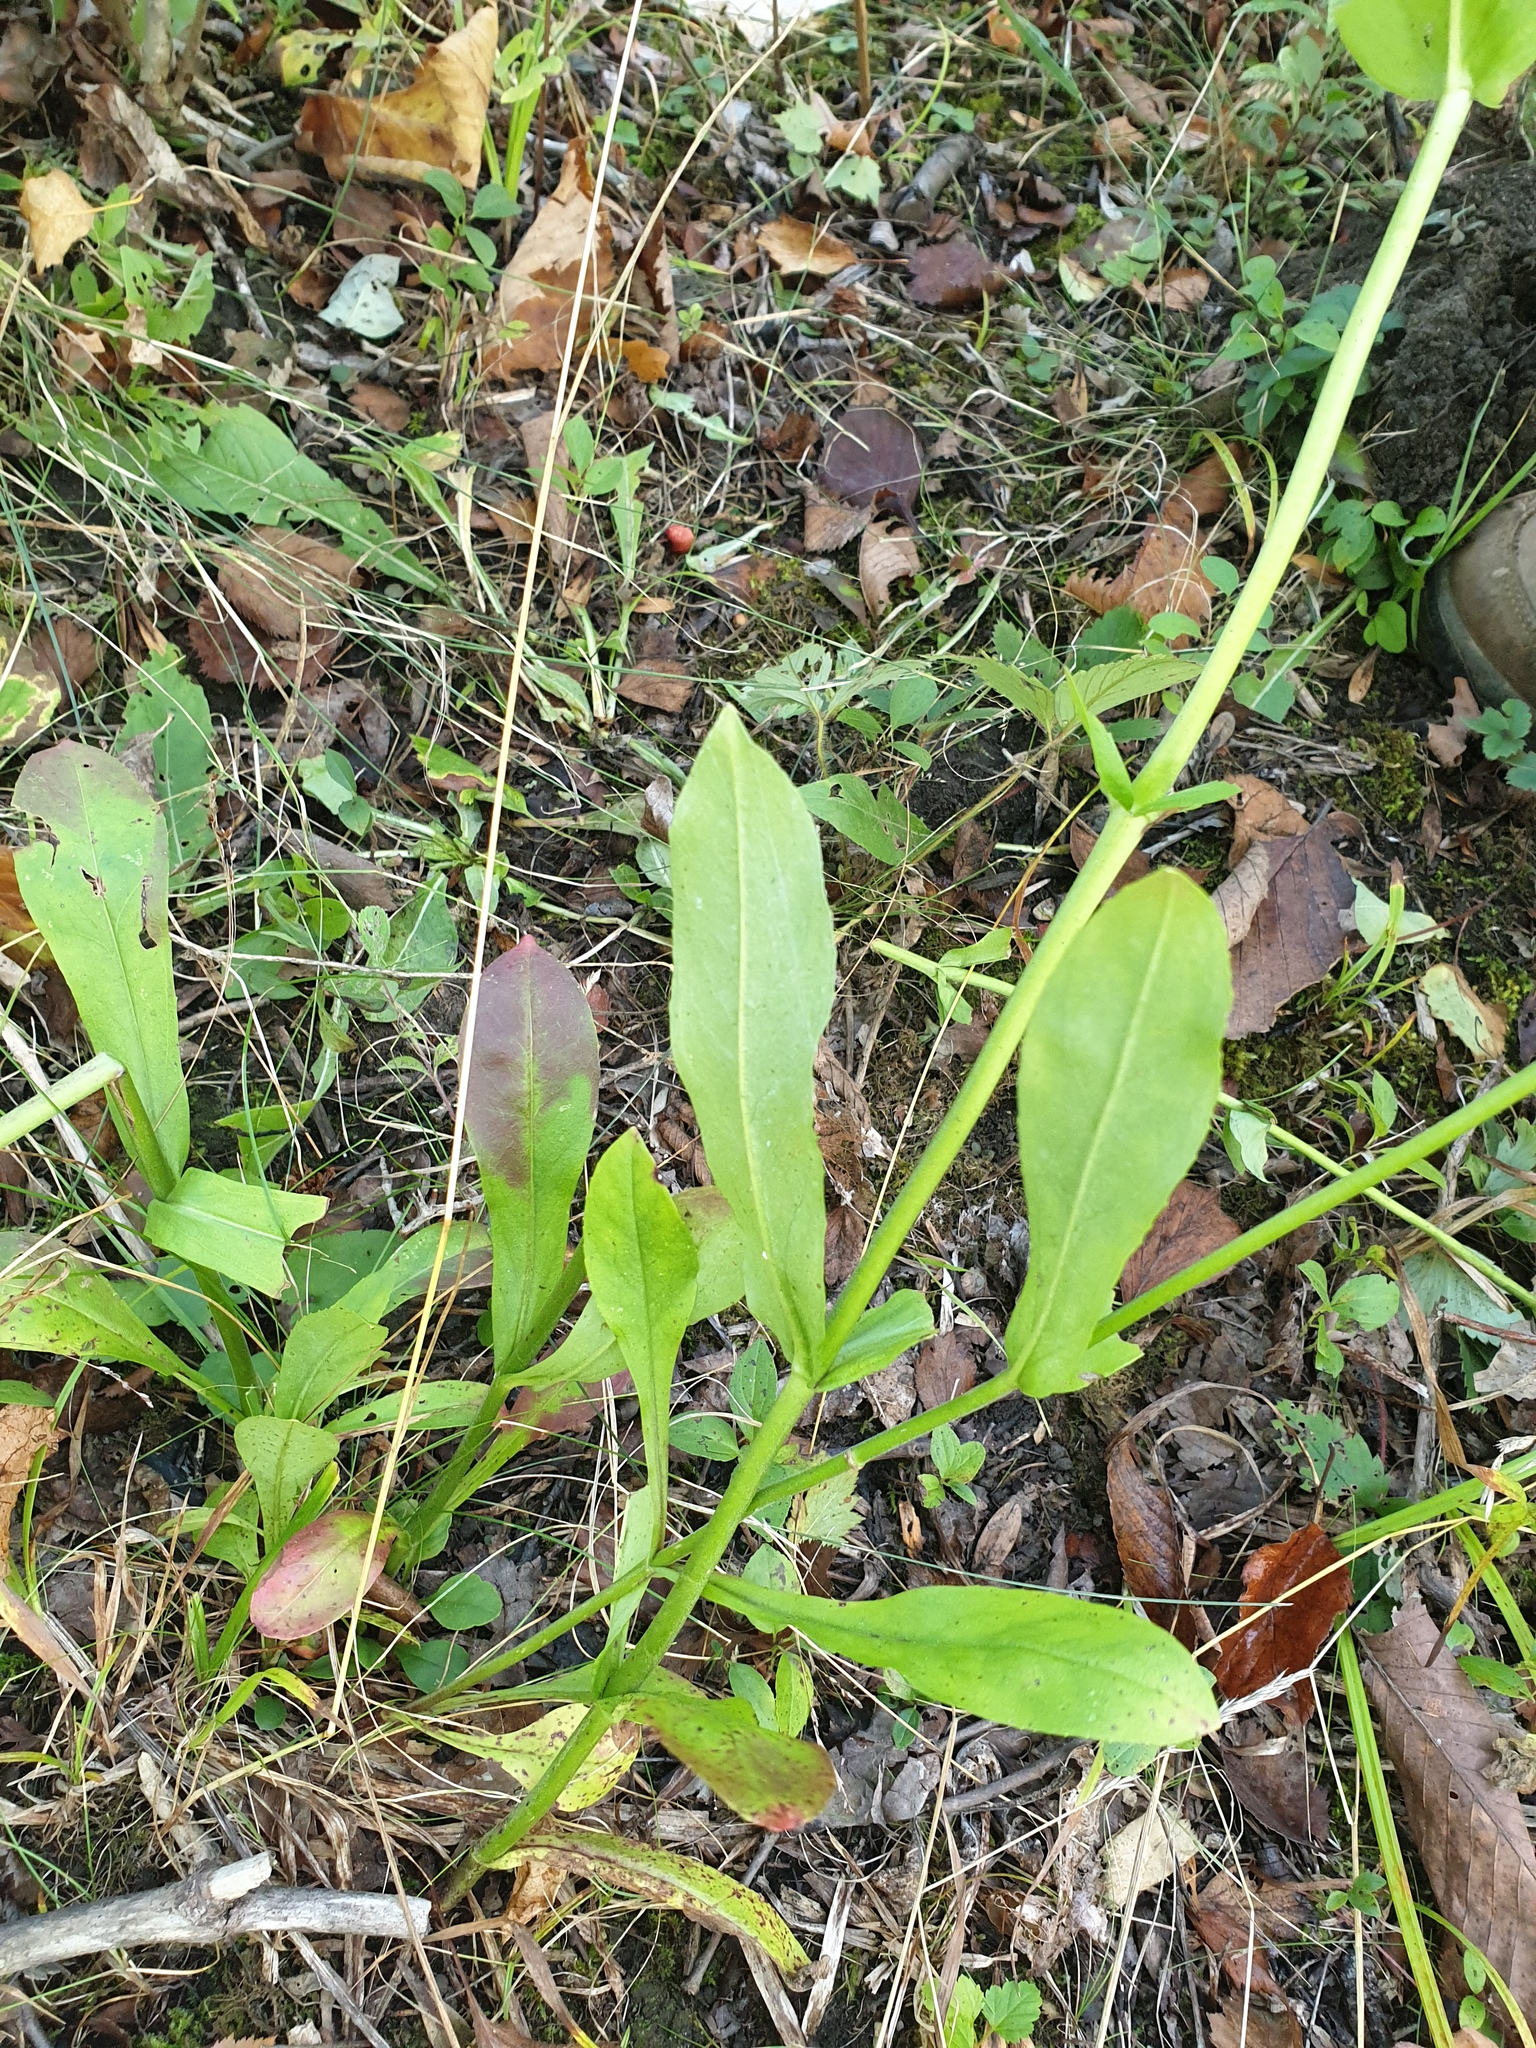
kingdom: Plantae
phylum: Tracheophyta
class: Magnoliopsida
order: Lamiales
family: Plantaginaceae
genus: Penstemon
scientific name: Penstemon digitalis
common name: Foxglove beardtongue
